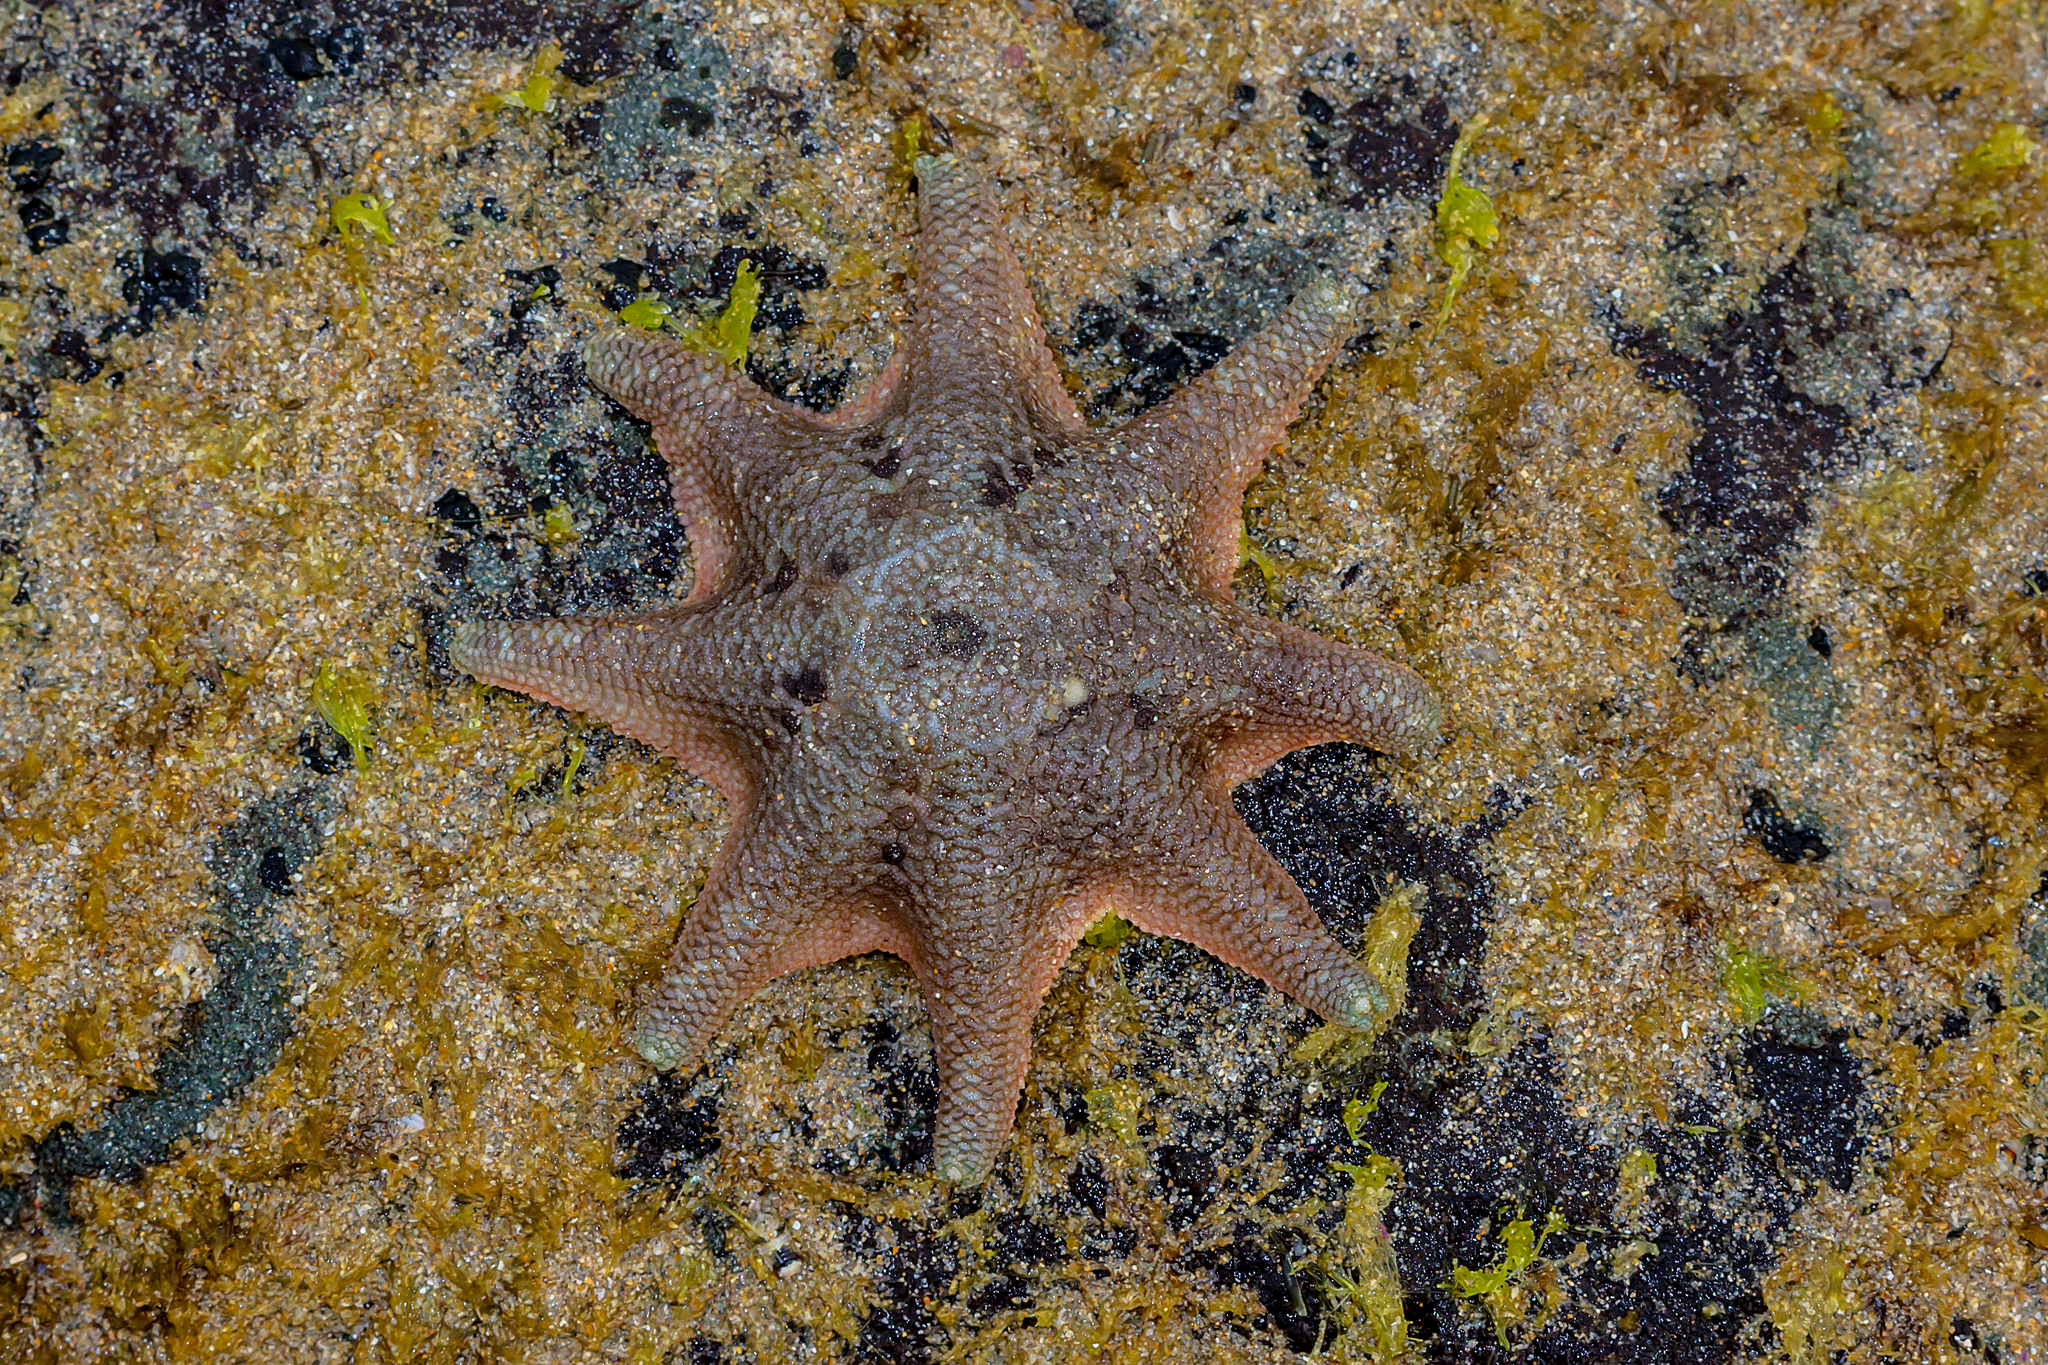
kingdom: Animalia
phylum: Echinodermata
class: Asteroidea
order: Valvatida
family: Asterinidae
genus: Meridiastra
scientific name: Meridiastra calcar
